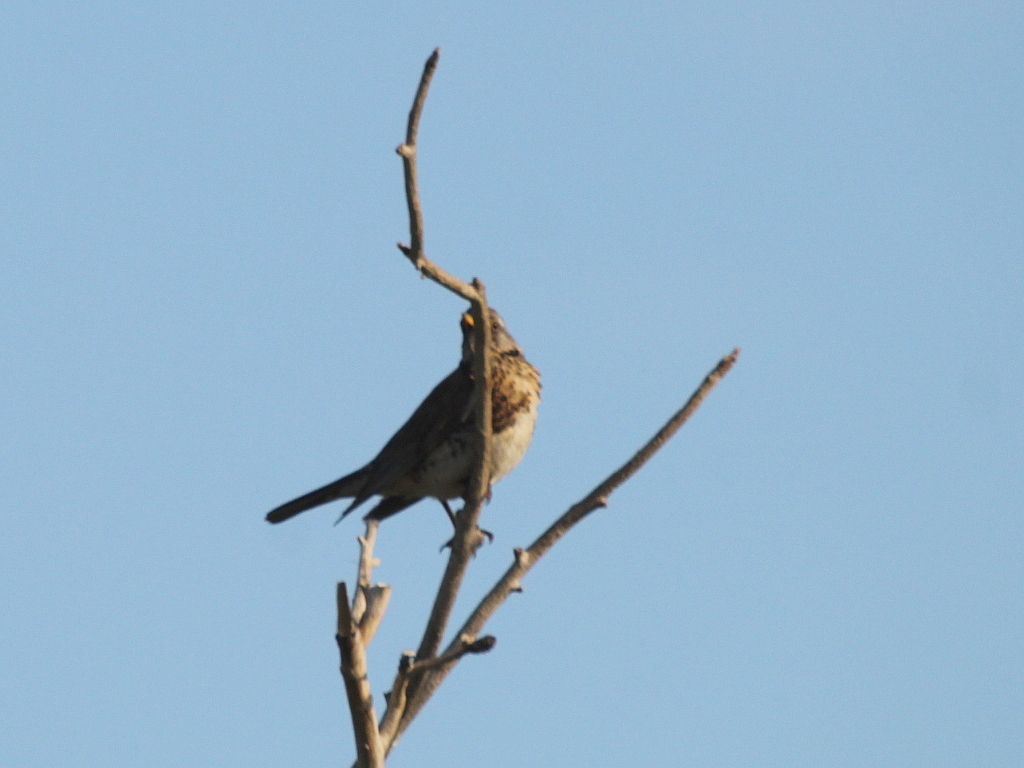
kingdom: Animalia
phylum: Chordata
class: Aves
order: Passeriformes
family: Turdidae
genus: Turdus
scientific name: Turdus pilaris
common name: Fieldfare
